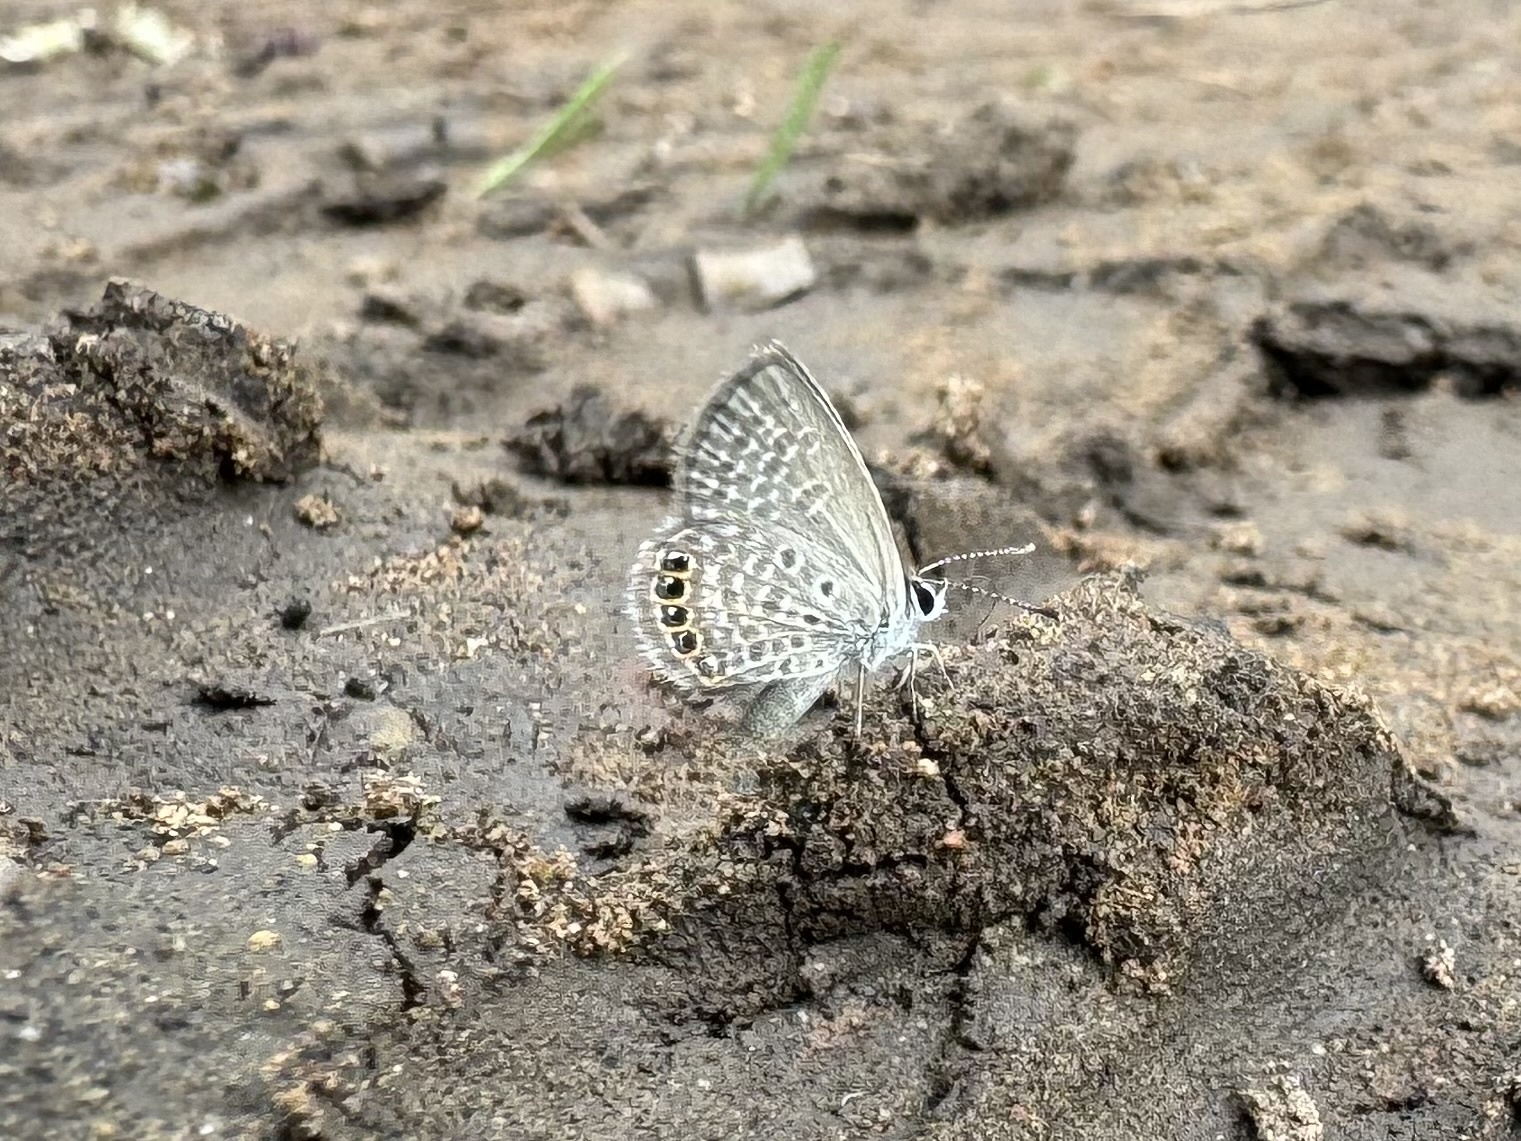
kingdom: Animalia
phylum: Arthropoda
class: Insecta
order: Lepidoptera
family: Lycaenidae
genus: Freyeria
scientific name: Freyeria putli
